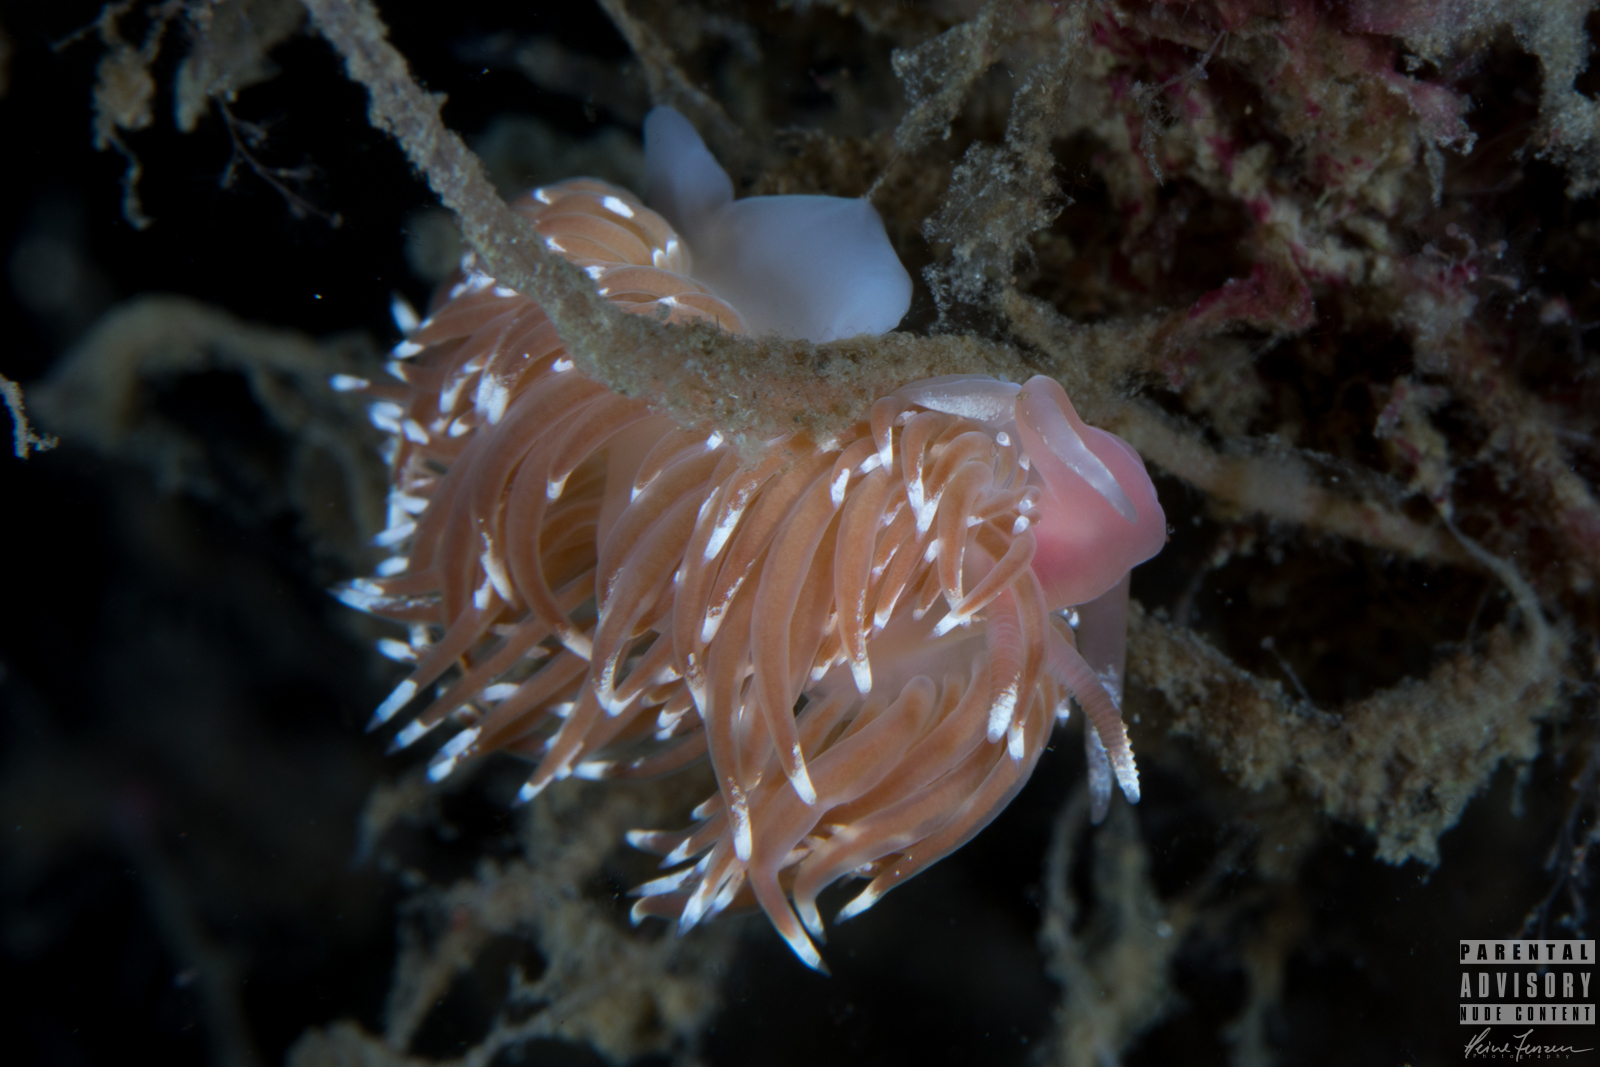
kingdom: Animalia
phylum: Mollusca
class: Gastropoda
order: Nudibranchia
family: Facelinidae
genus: Facelina
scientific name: Facelina bostoniensis
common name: Boston facelina
